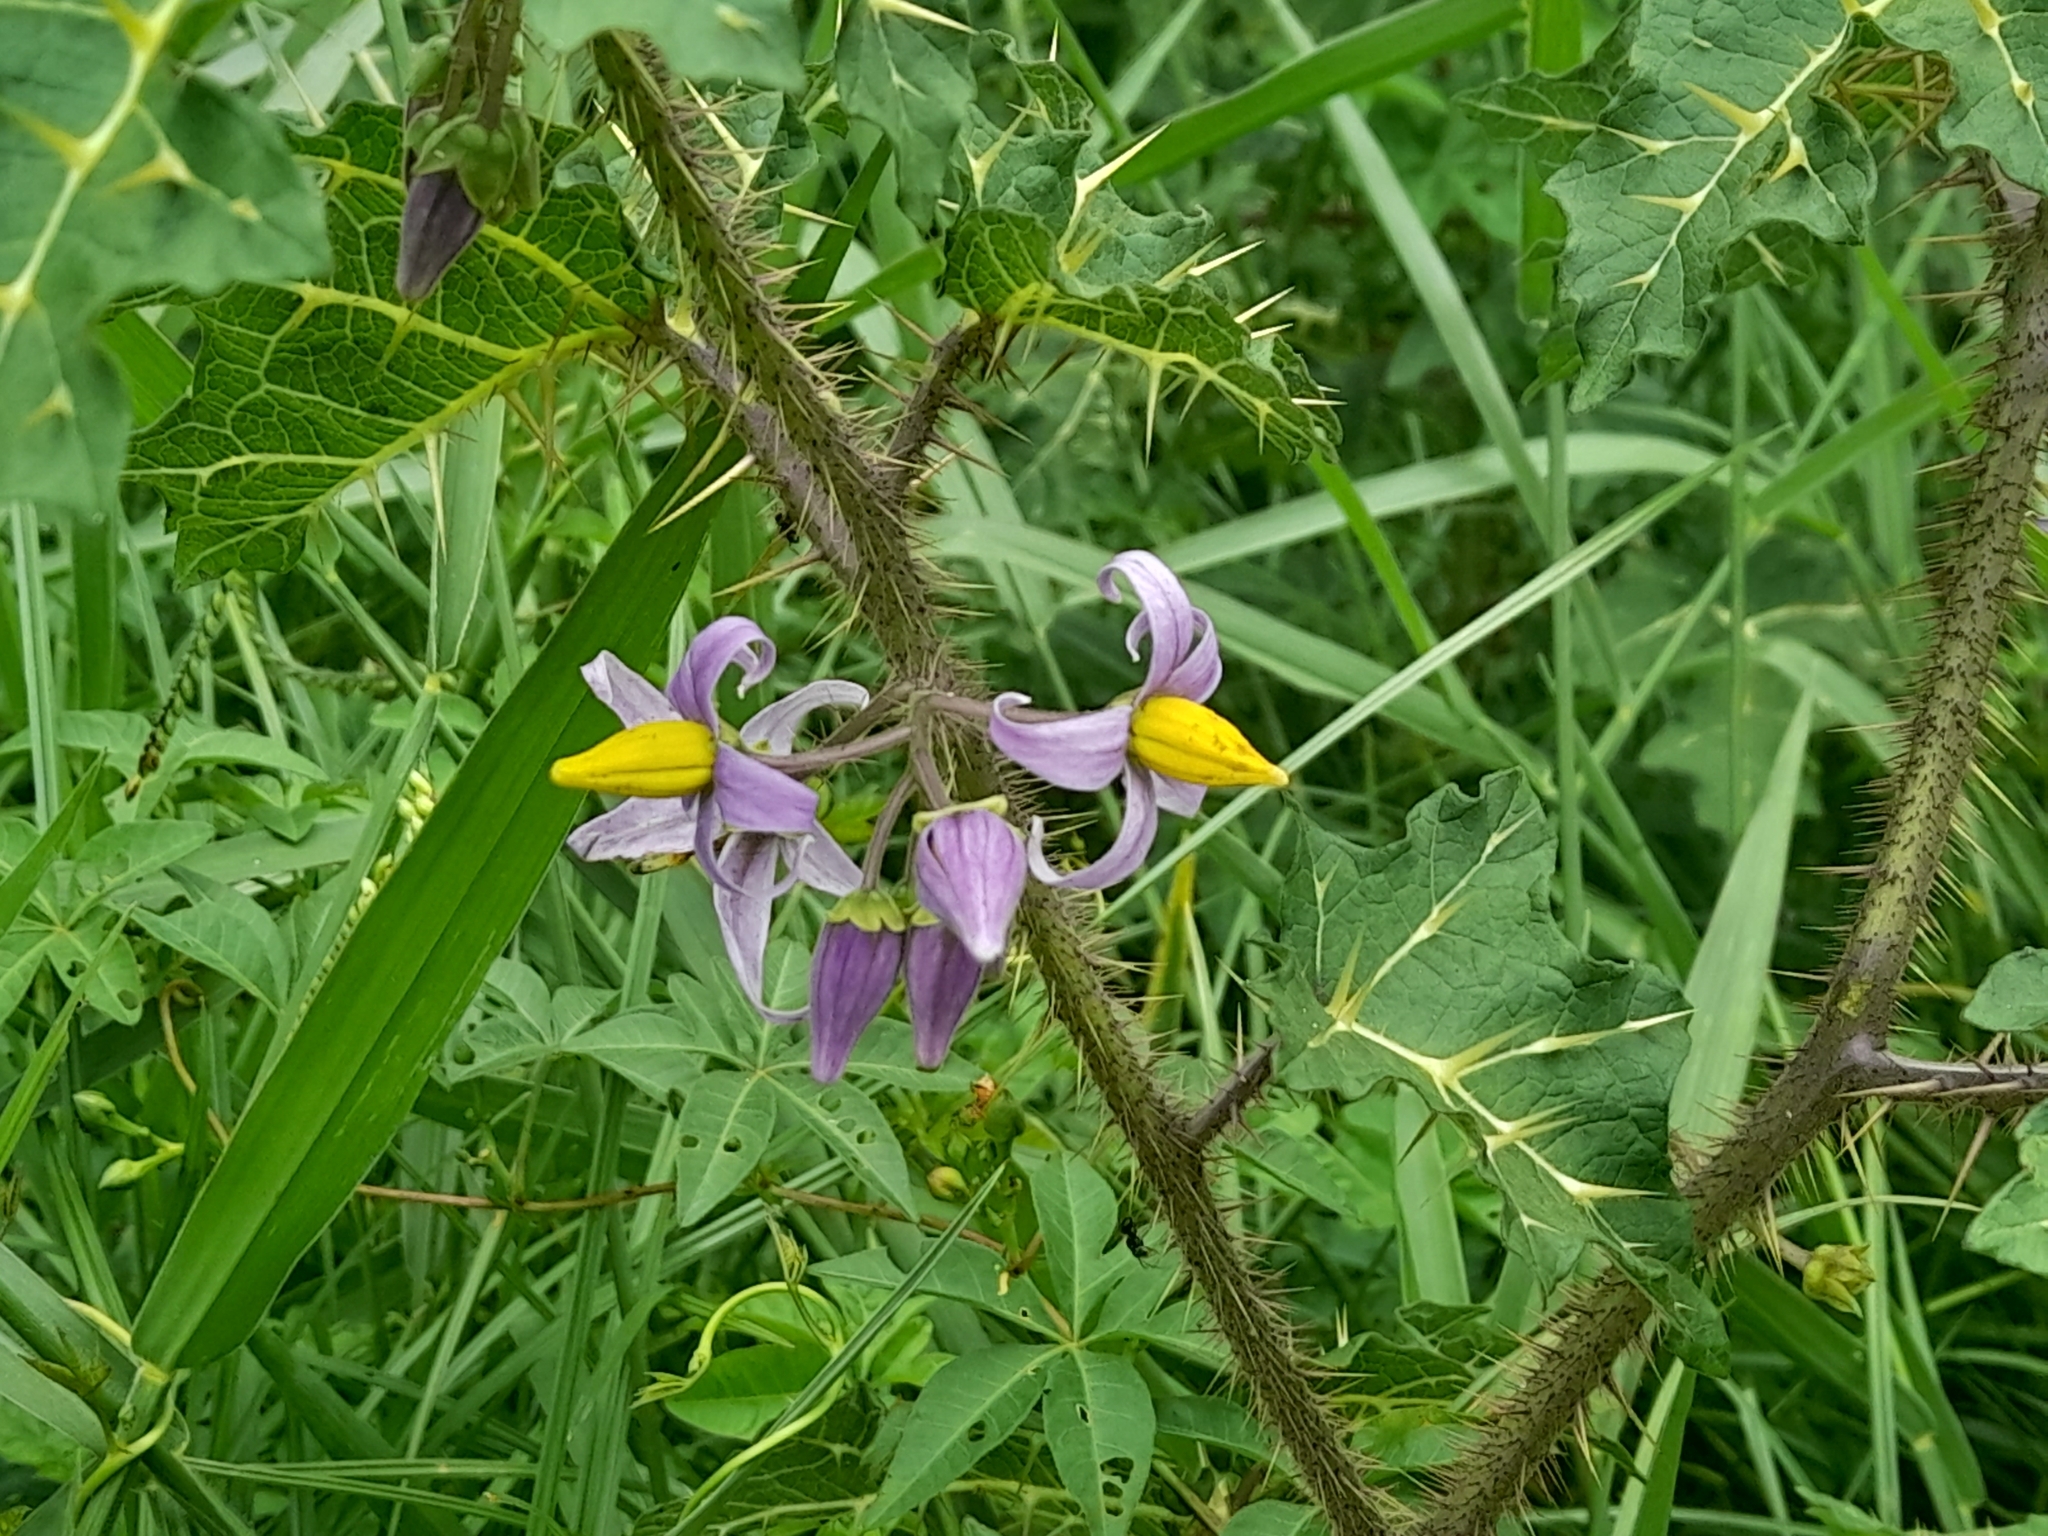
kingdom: Plantae
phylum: Tracheophyta
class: Magnoliopsida
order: Solanales
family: Solanaceae
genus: Solanum
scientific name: Solanum palinacanthum
